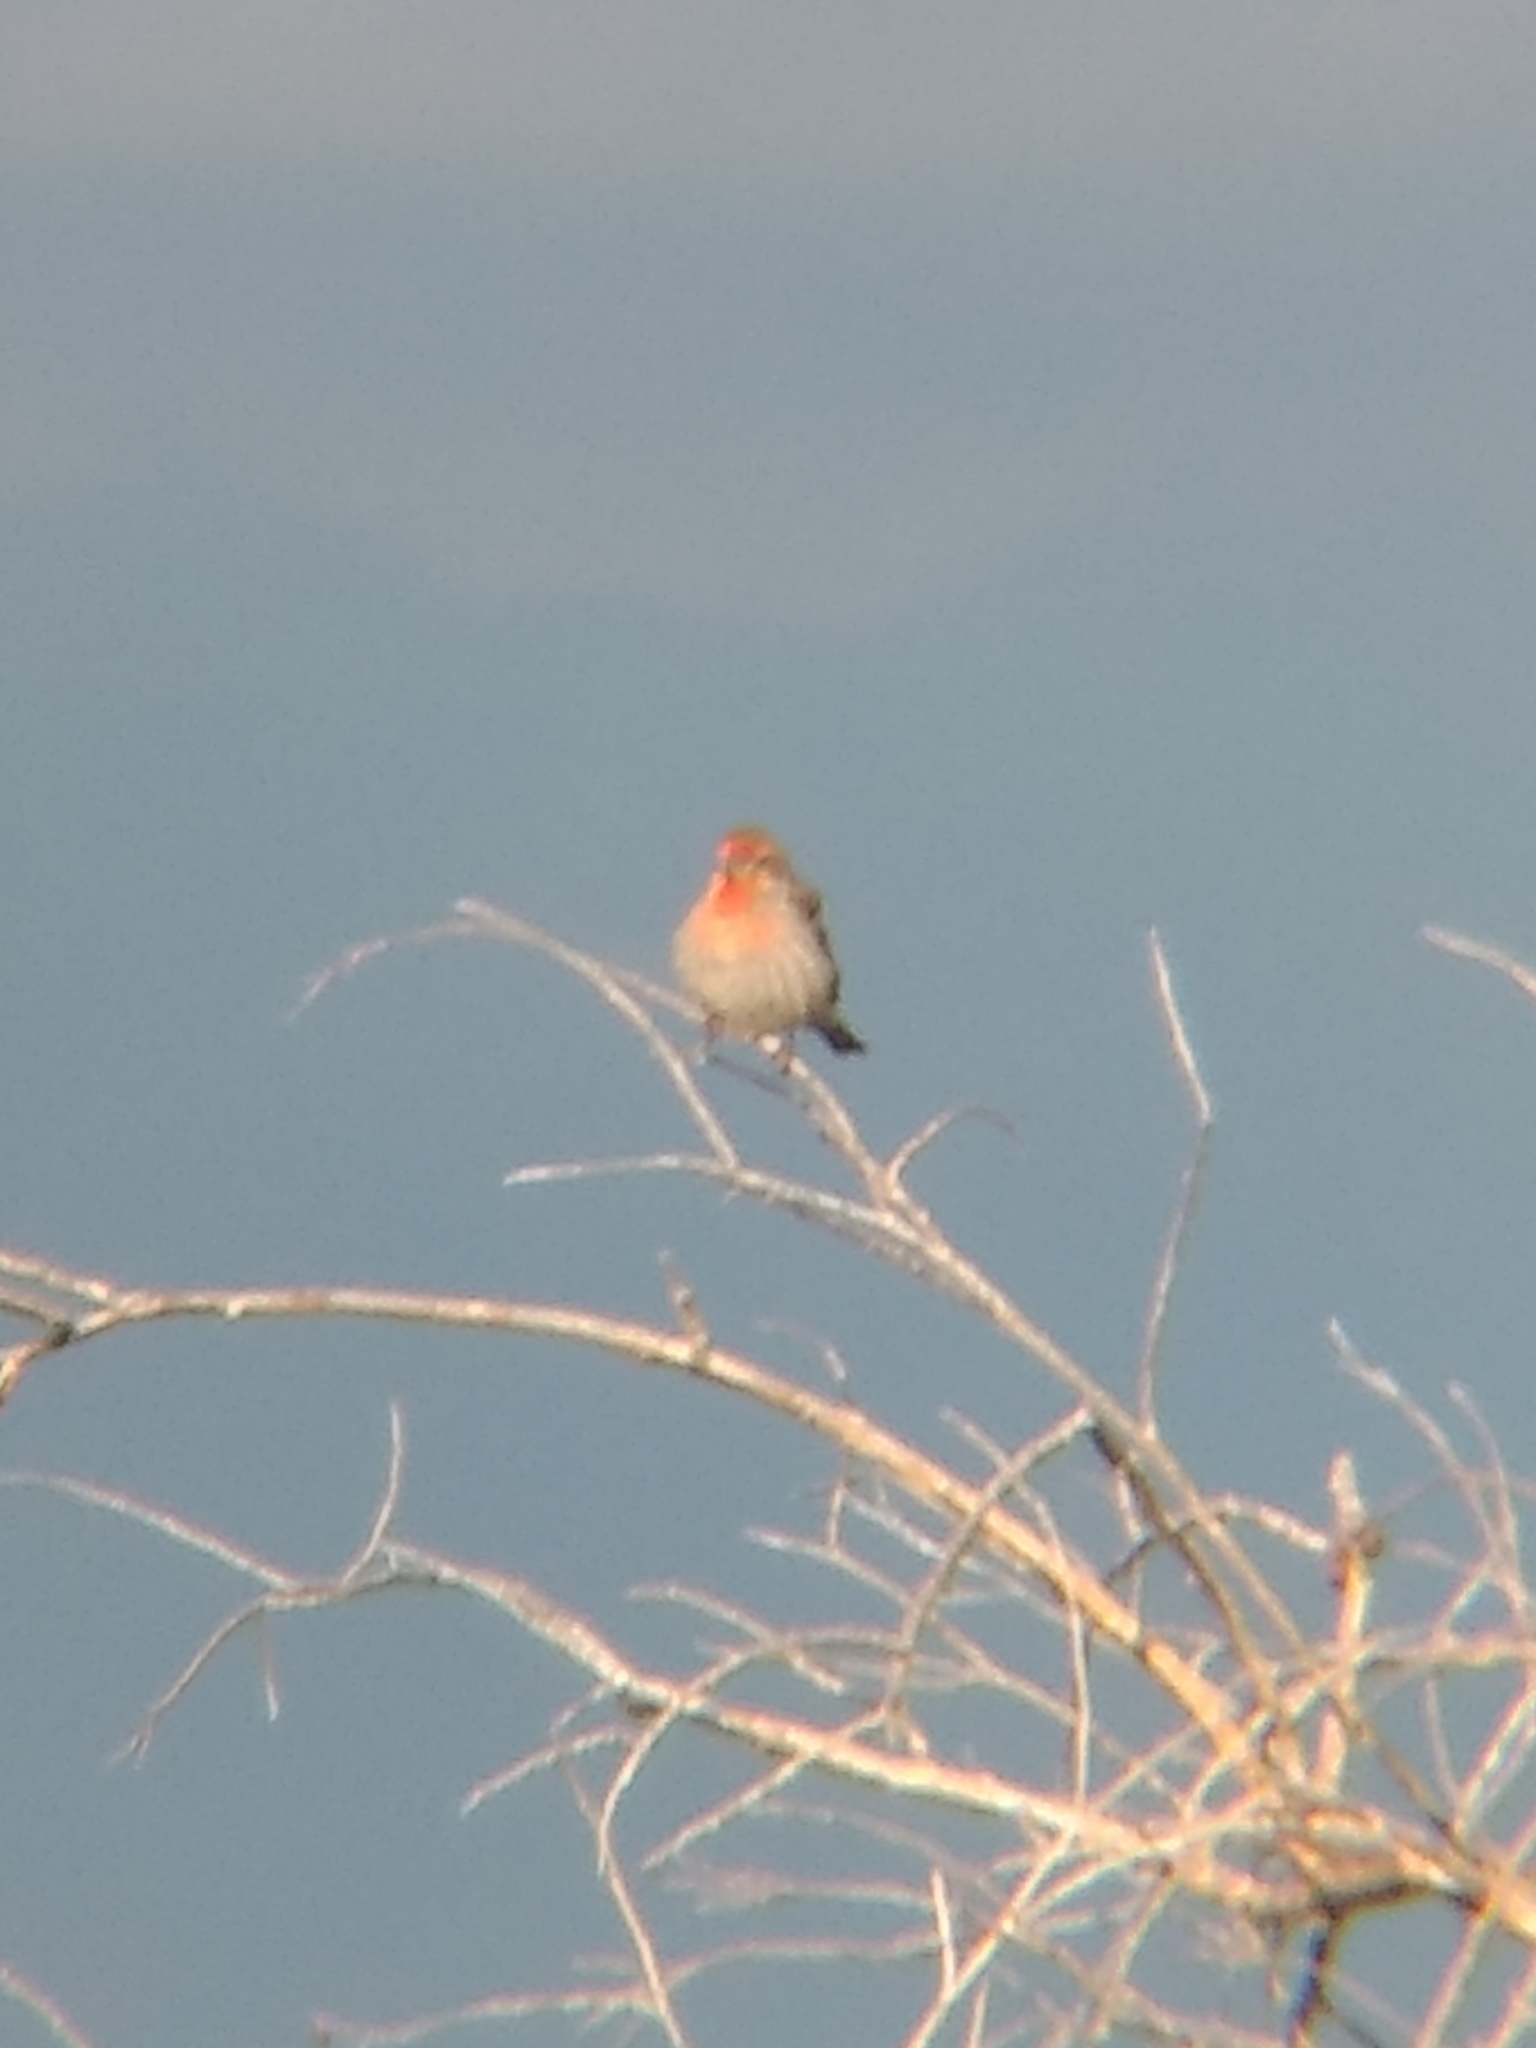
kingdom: Animalia
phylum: Chordata
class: Aves
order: Passeriformes
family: Fringillidae
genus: Haemorhous
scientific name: Haemorhous mexicanus
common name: House finch
